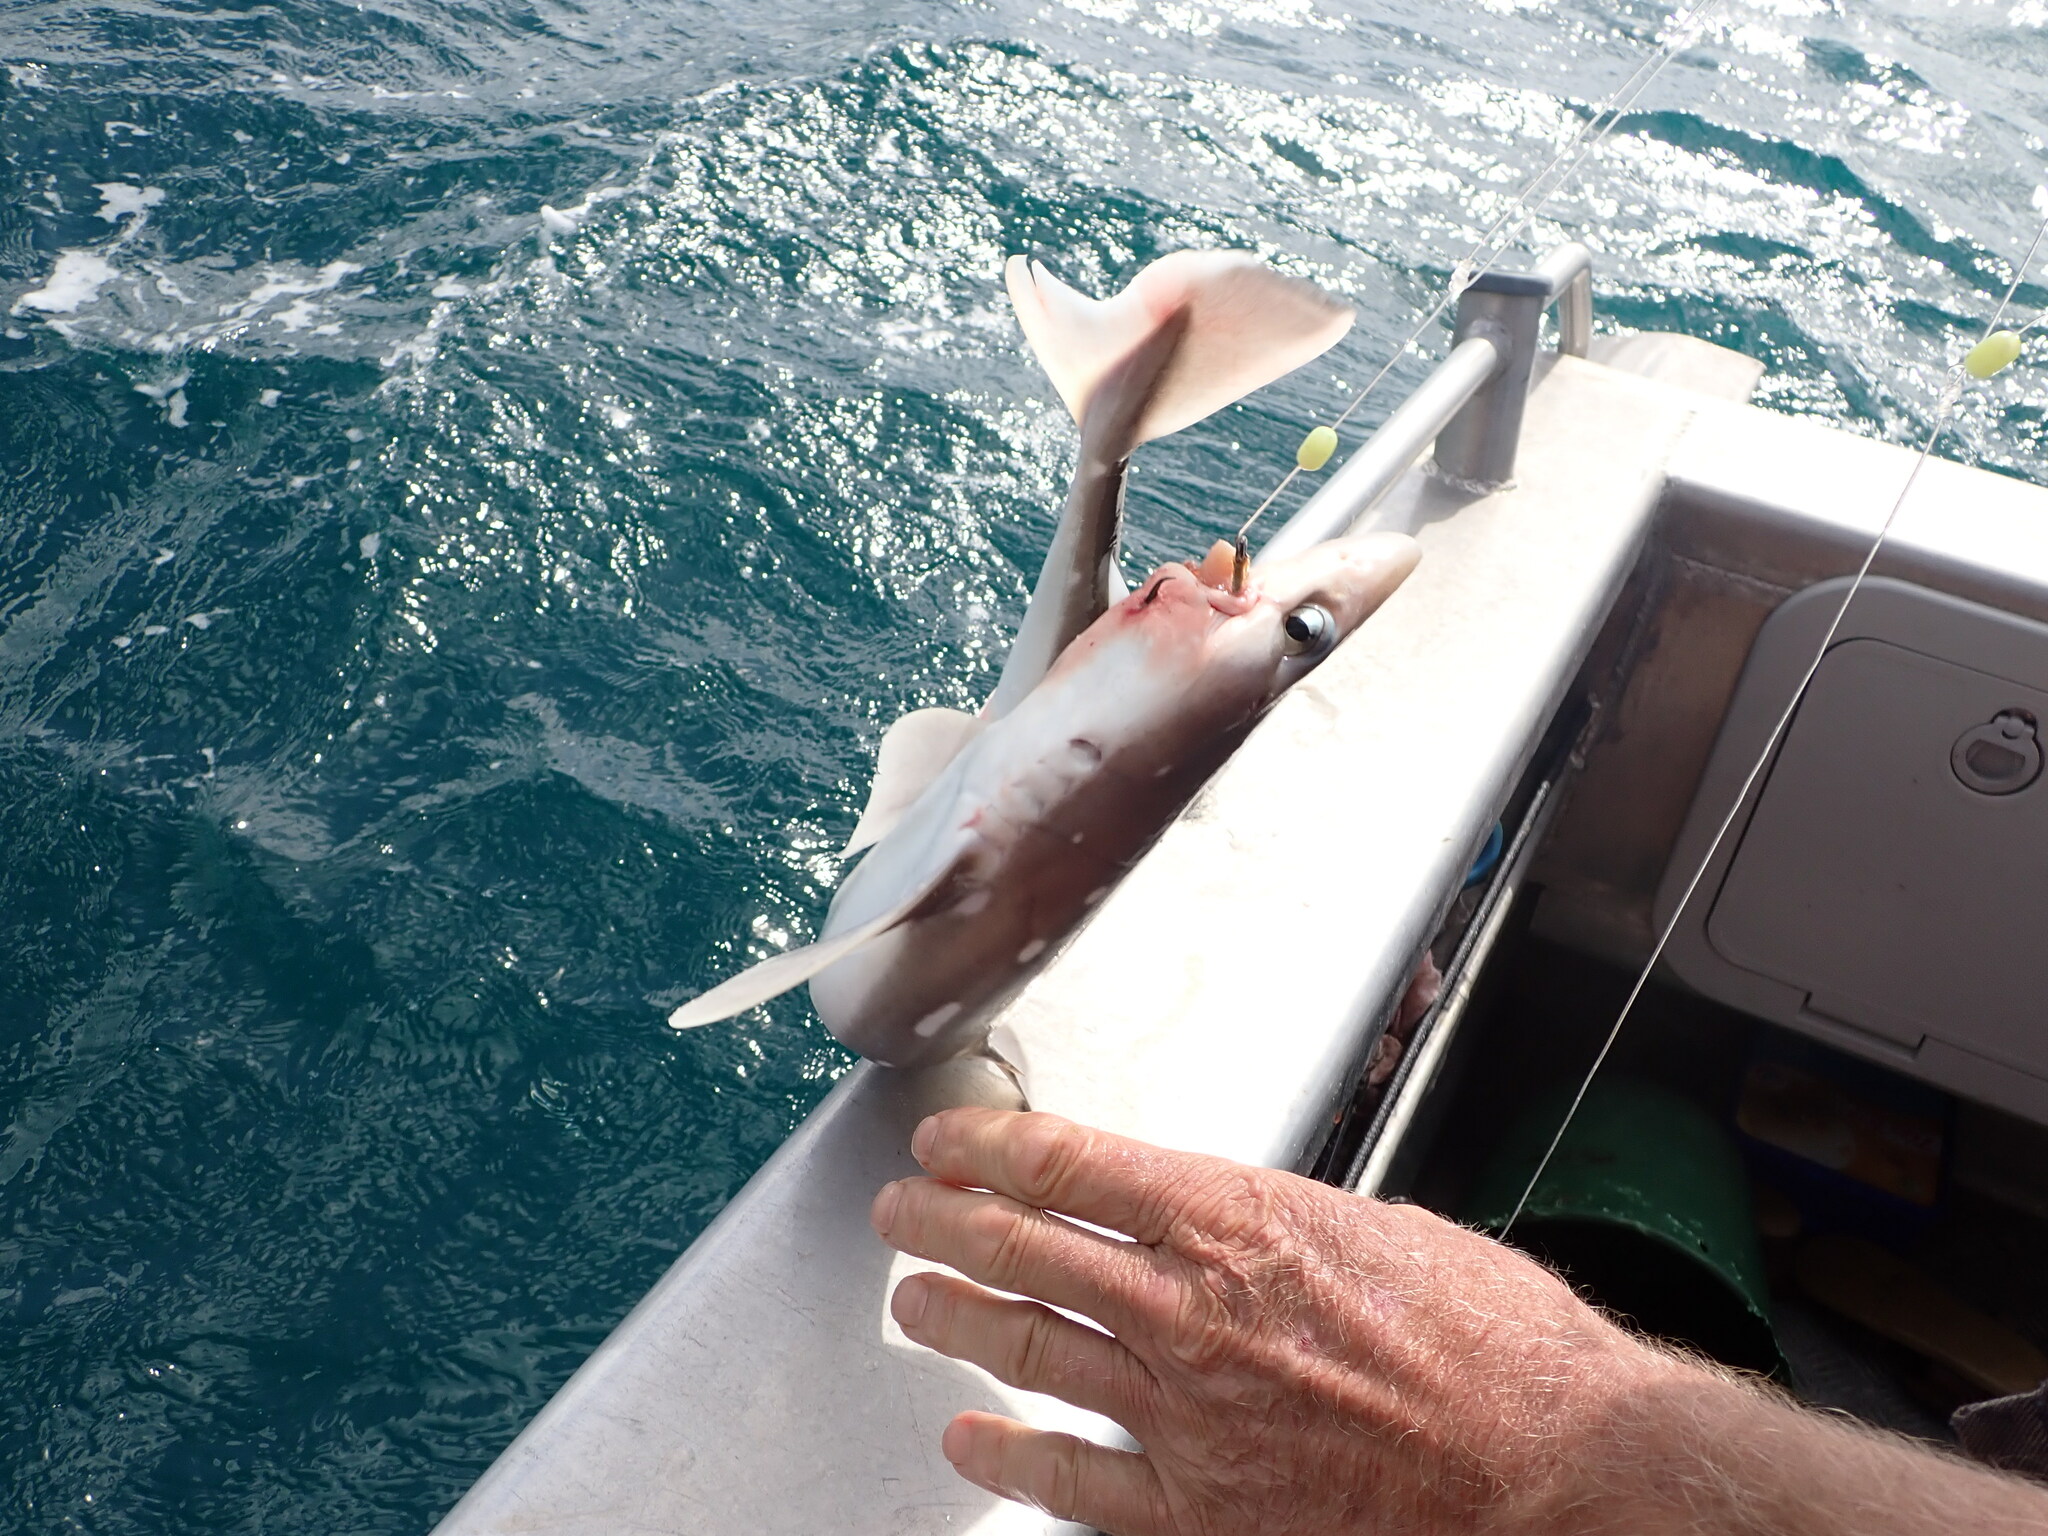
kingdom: Animalia
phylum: Chordata
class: Elasmobranchii
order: Squaliformes
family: Squalidae
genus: Squalus
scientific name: Squalus acanthias
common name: Spurdog
